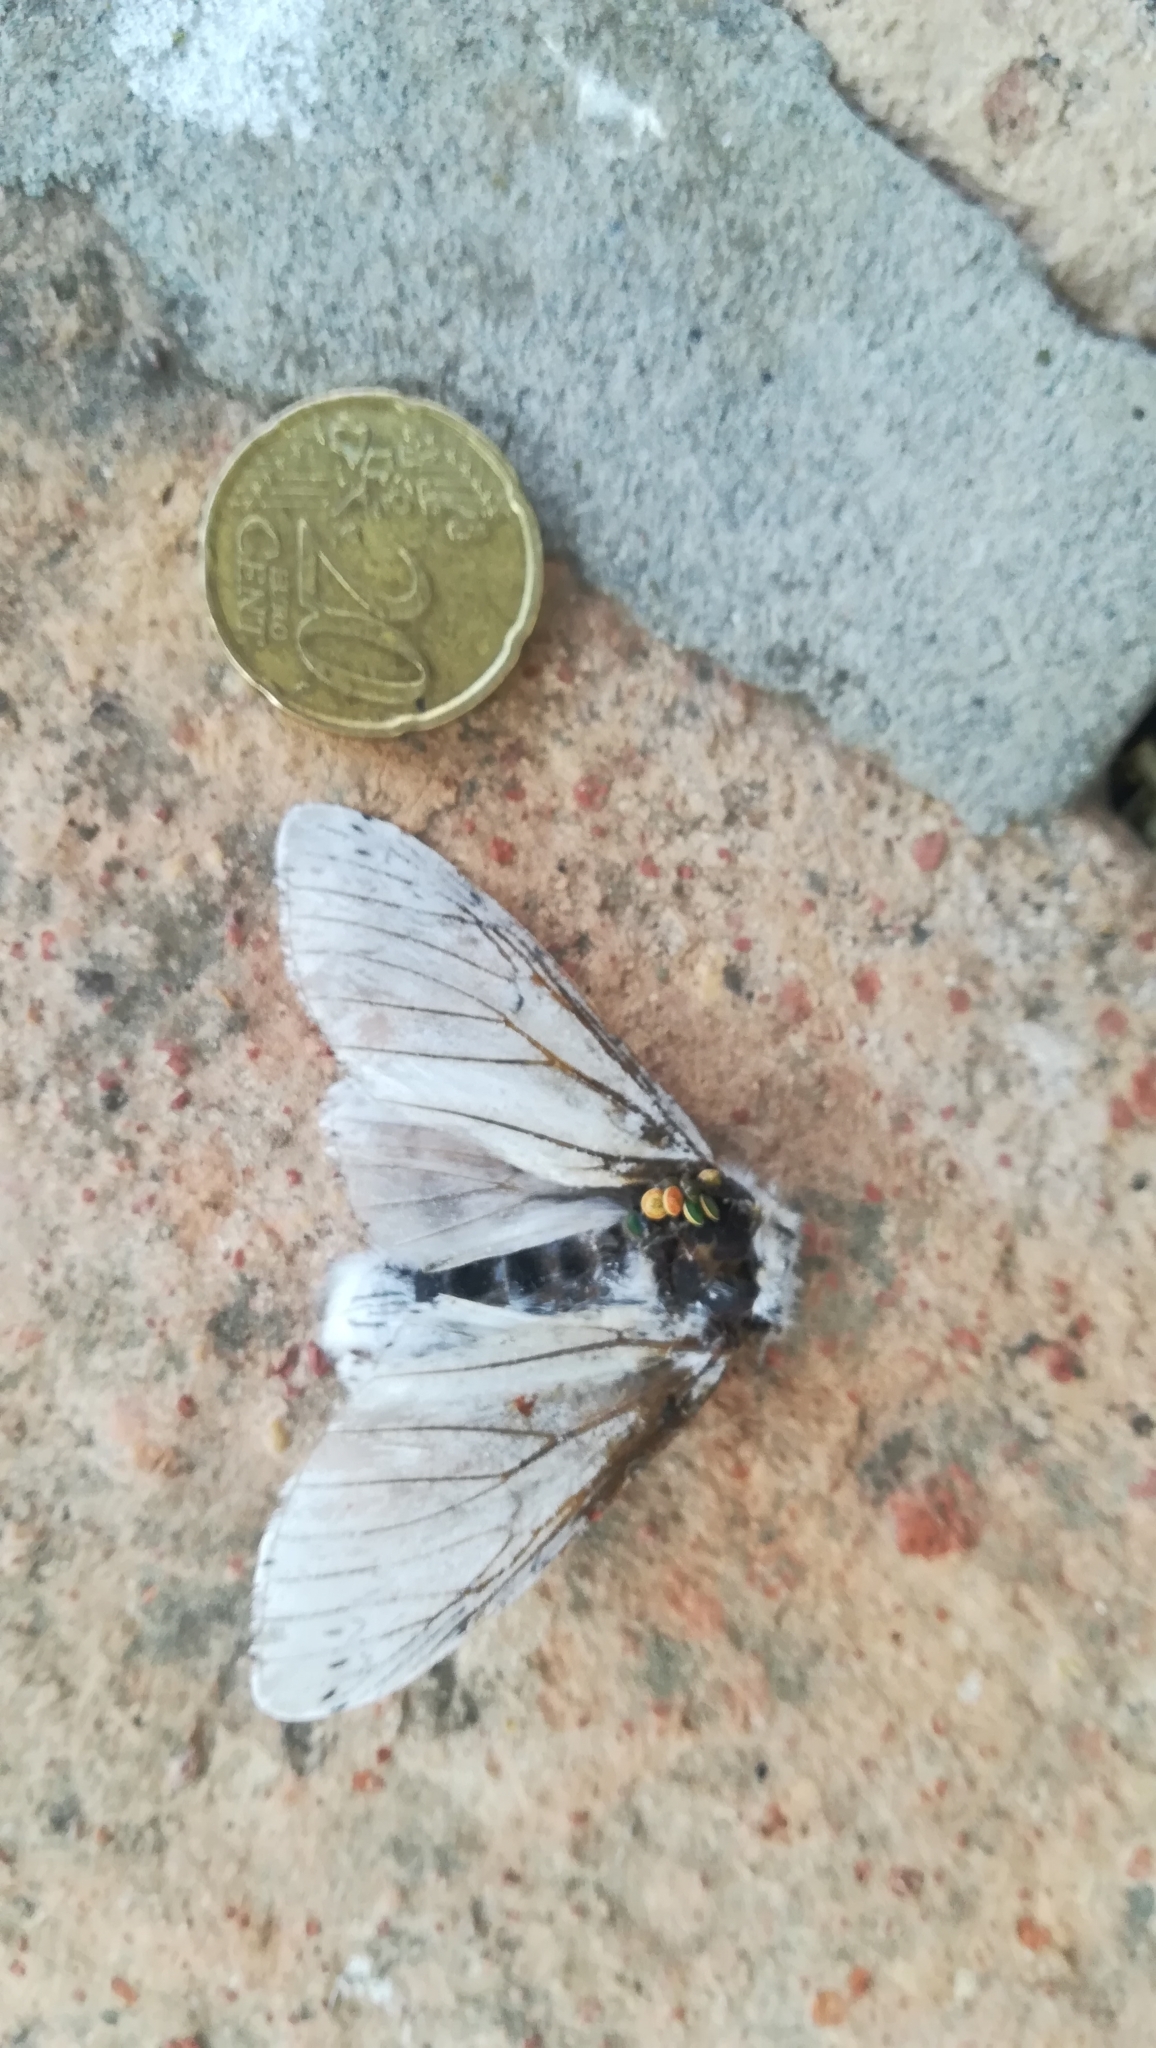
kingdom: Animalia
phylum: Arthropoda
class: Insecta
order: Lepidoptera
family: Notodontidae
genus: Cerura
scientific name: Cerura erminea
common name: Lesser puss moth
